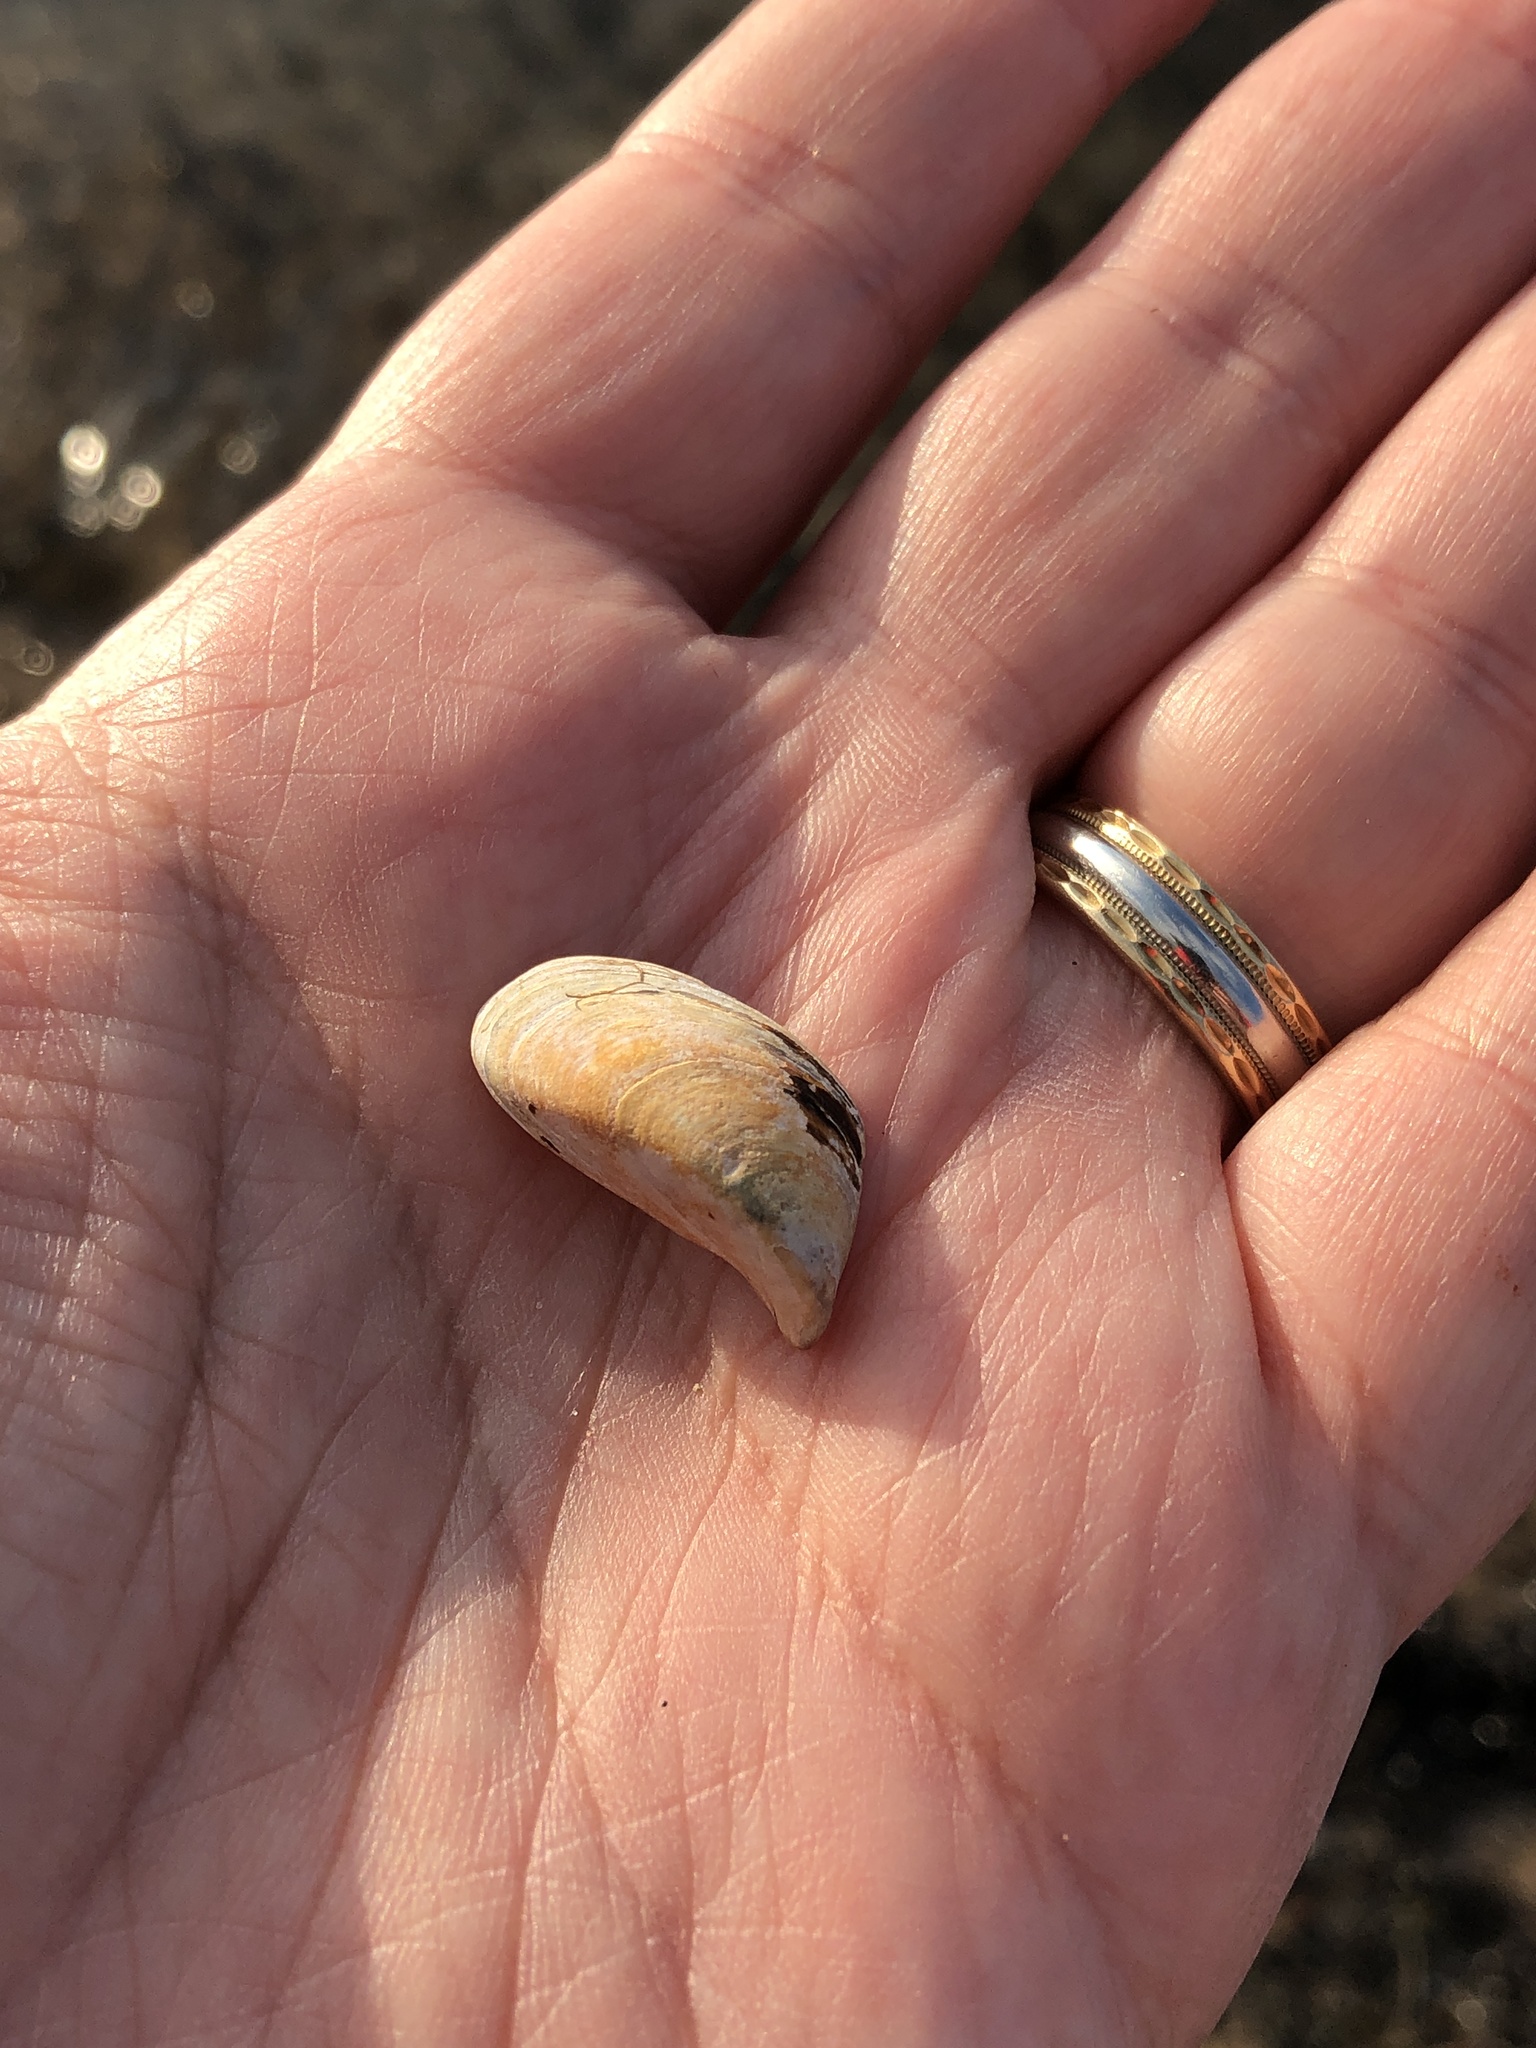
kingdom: Animalia
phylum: Mollusca
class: Bivalvia
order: Myida
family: Dreissenidae
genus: Dreissena
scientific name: Dreissena polymorpha
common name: Zebra mussel
